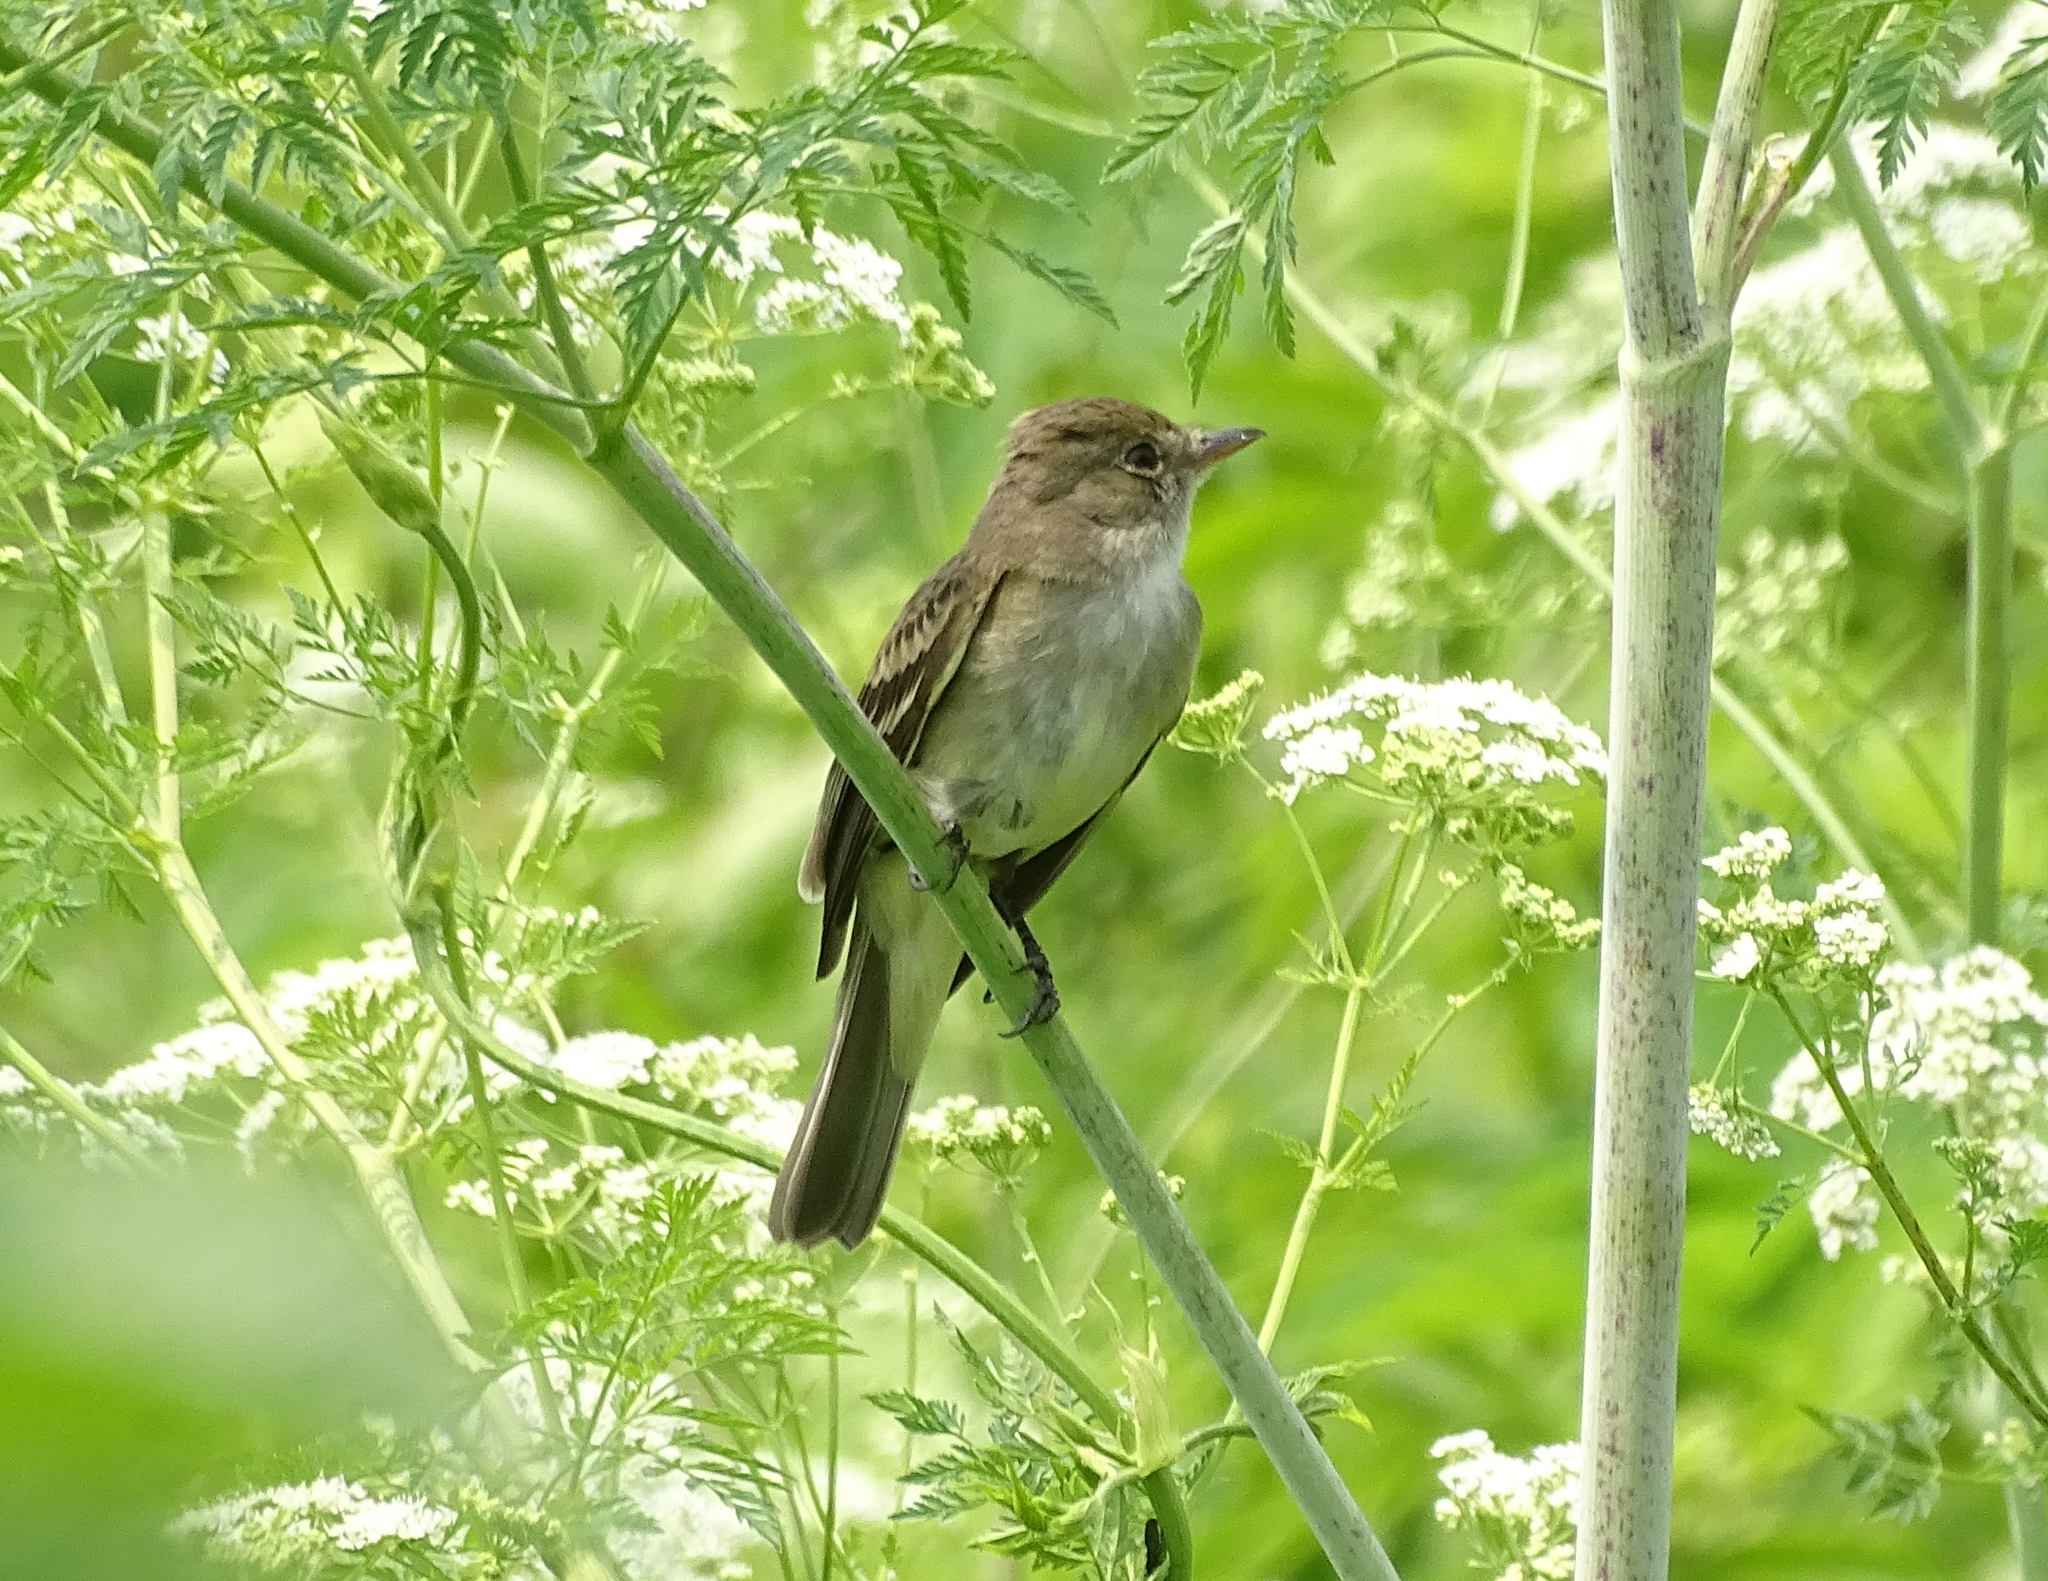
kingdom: Animalia
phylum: Chordata
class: Aves
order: Passeriformes
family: Tyrannidae
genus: Empidonax
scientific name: Empidonax traillii
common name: Willow flycatcher
